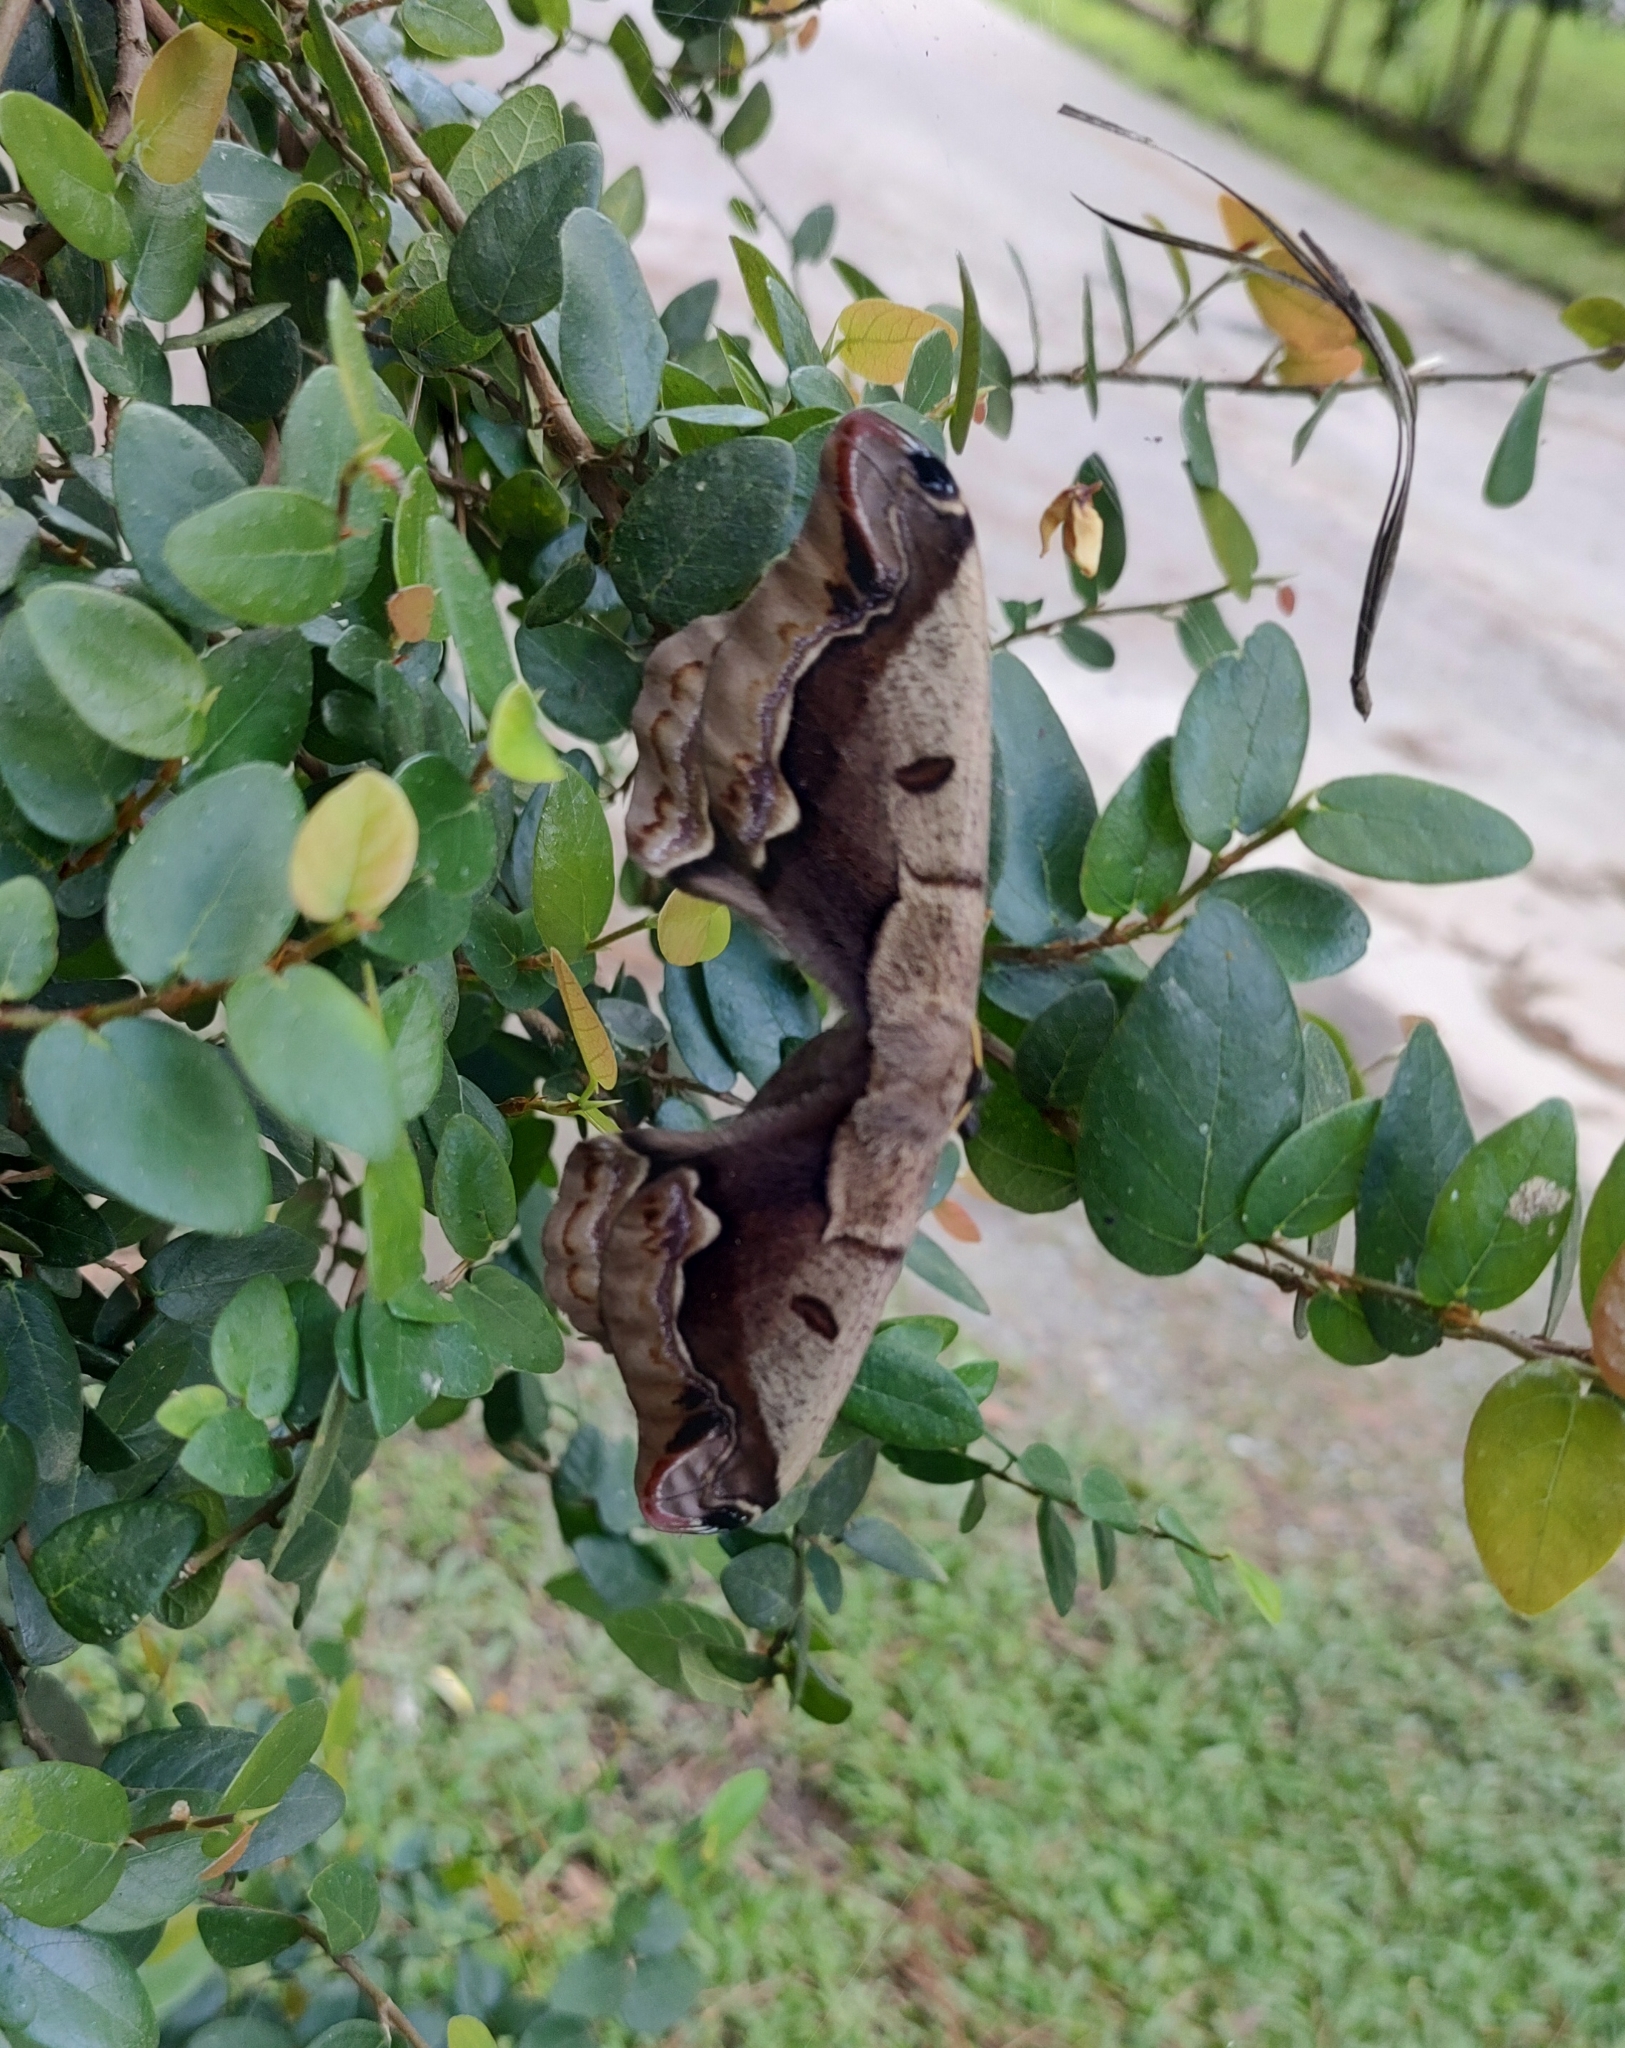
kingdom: Animalia
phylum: Arthropoda
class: Insecta
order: Lepidoptera
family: Saturniidae
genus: Arsenura
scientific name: Arsenura xanthopus
